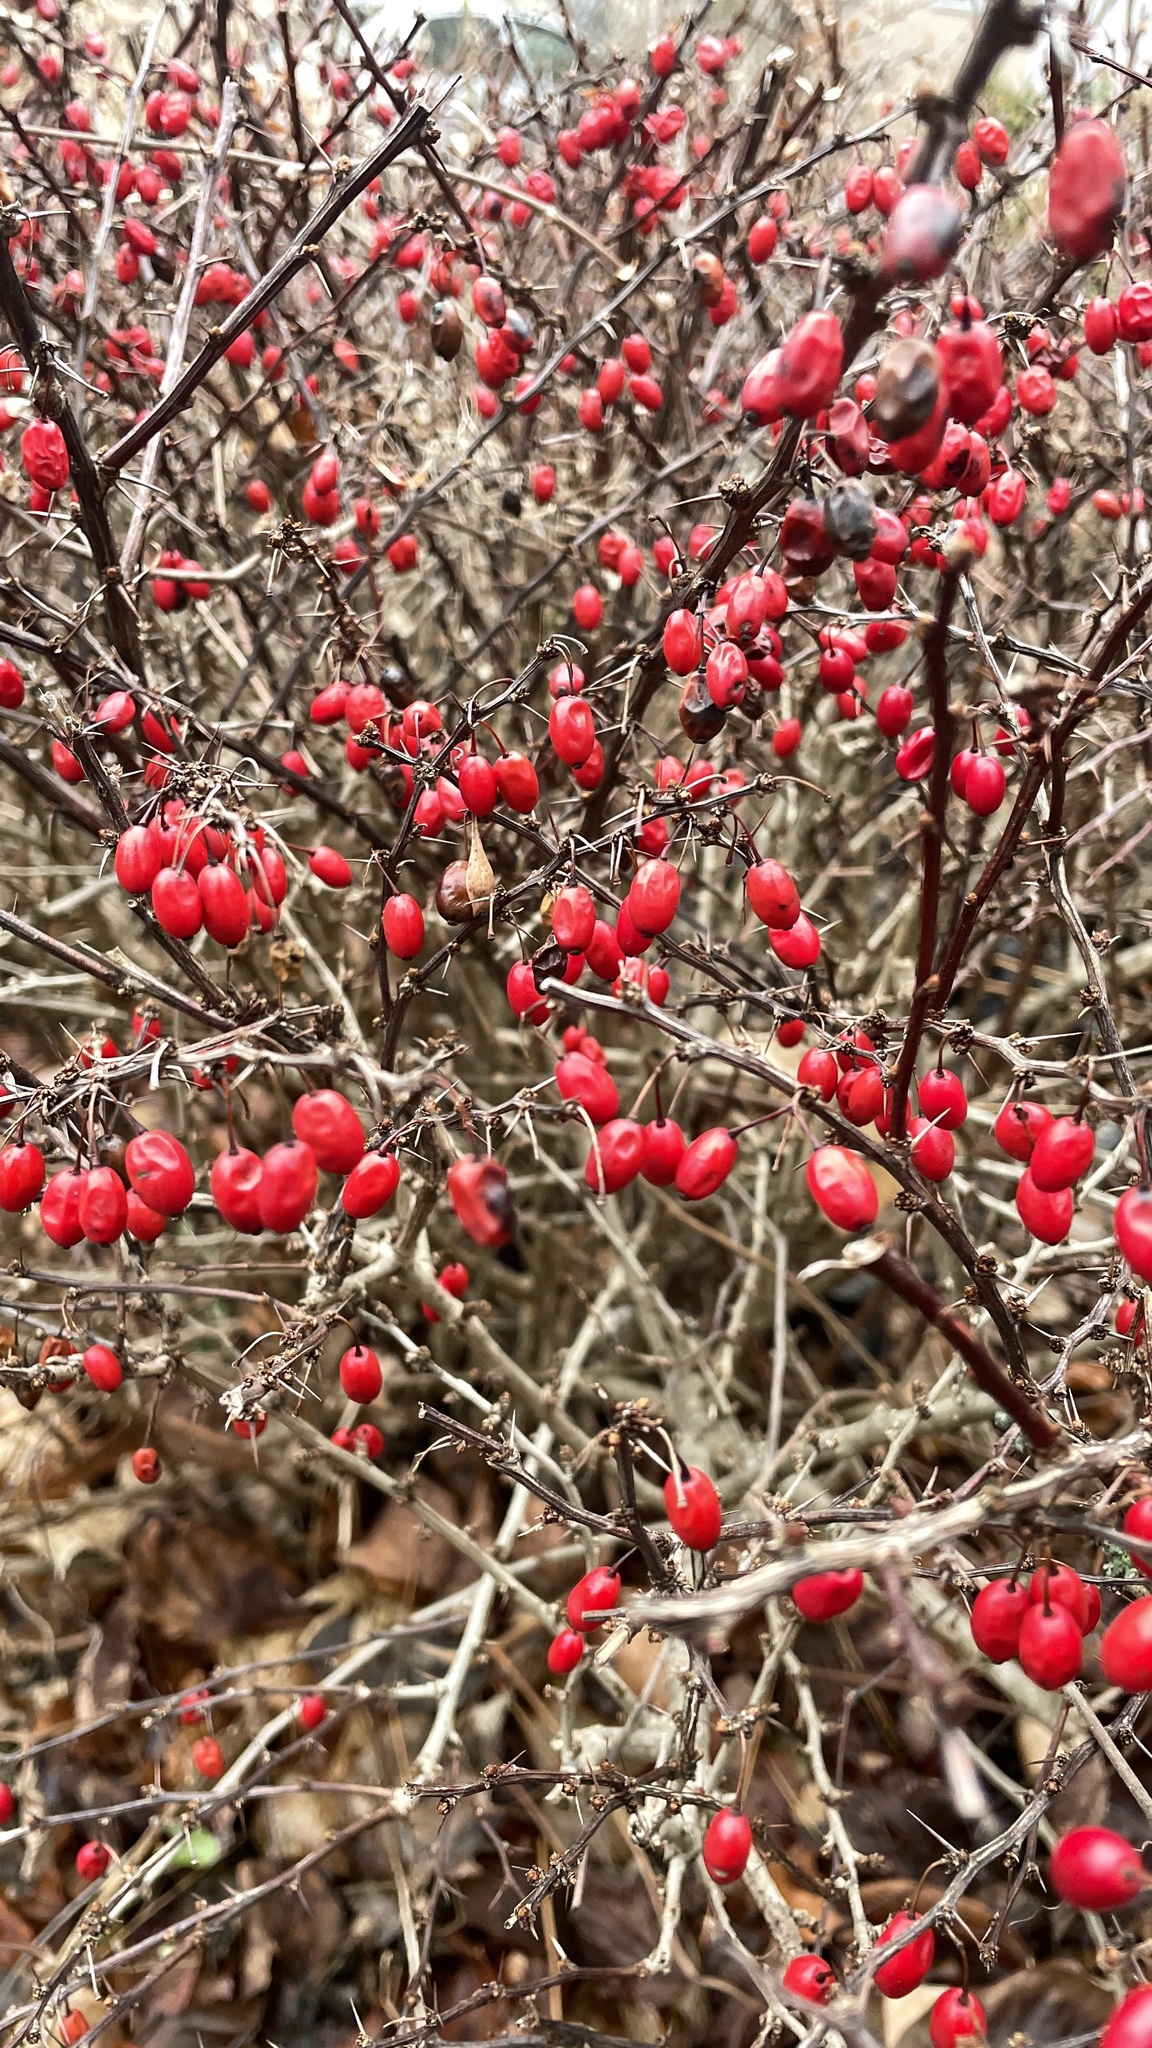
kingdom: Plantae
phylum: Tracheophyta
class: Magnoliopsida
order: Ranunculales
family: Berberidaceae
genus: Berberis
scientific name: Berberis thunbergii
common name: Japanese barberry
